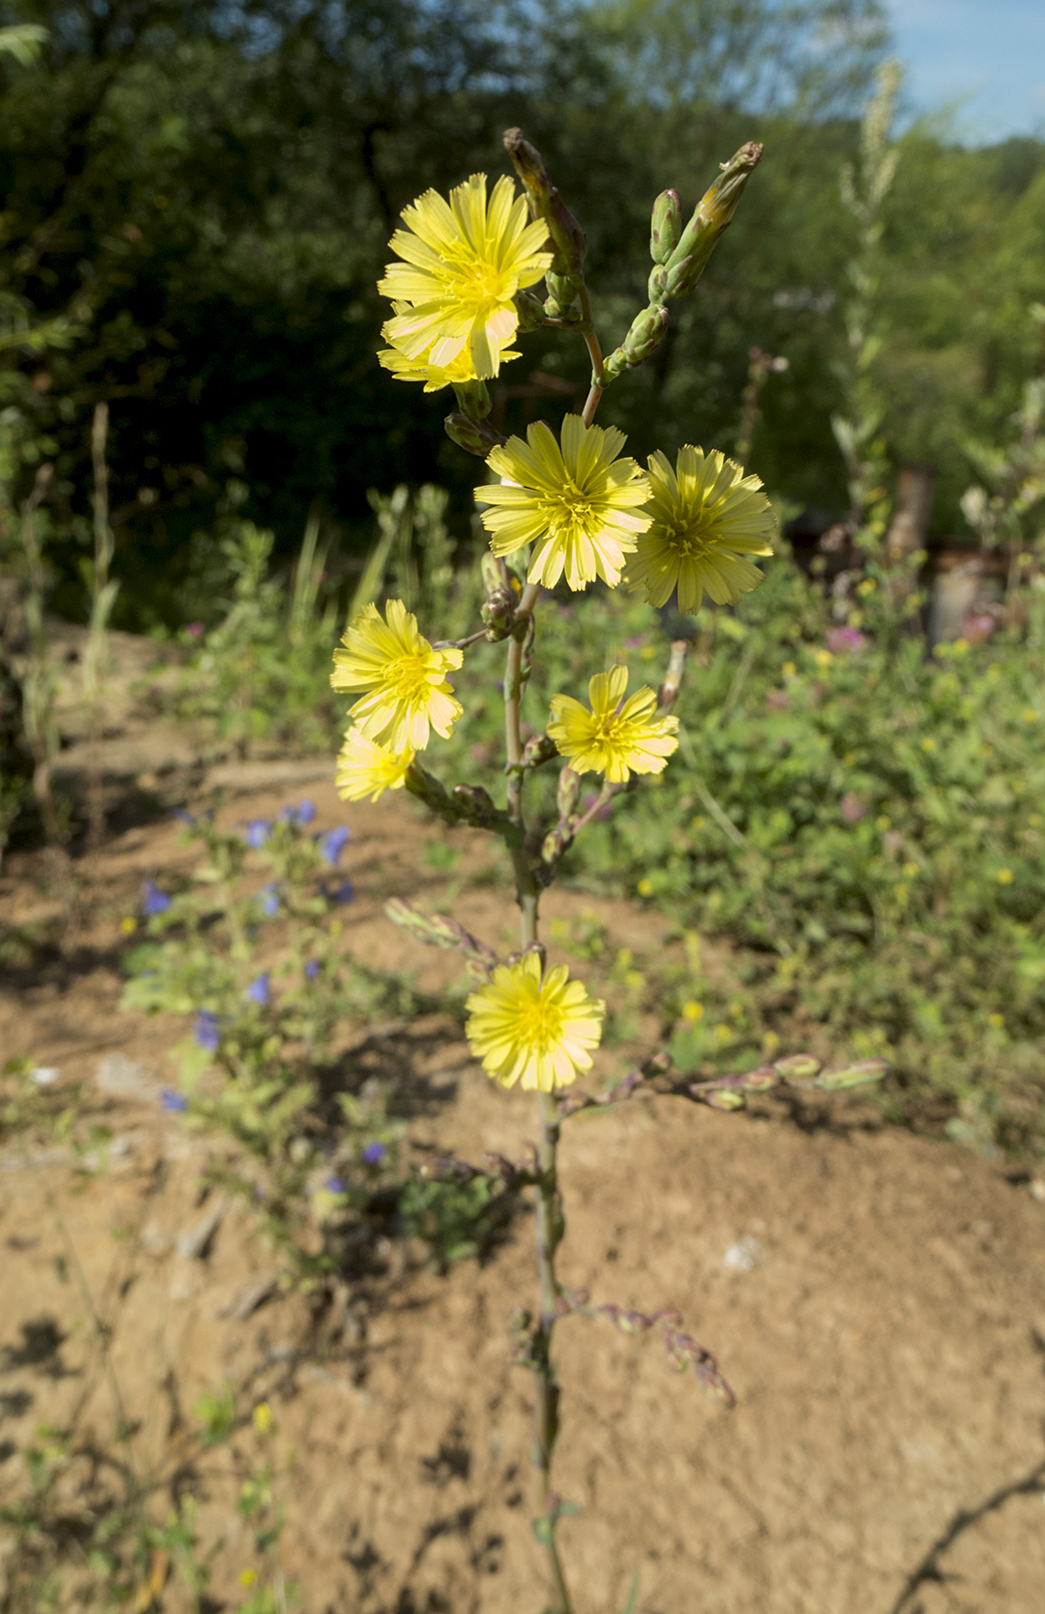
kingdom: Plantae
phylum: Tracheophyta
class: Magnoliopsida
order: Asterales
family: Asteraceae
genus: Lactuca
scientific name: Lactuca serriola
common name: Prickly lettuce
